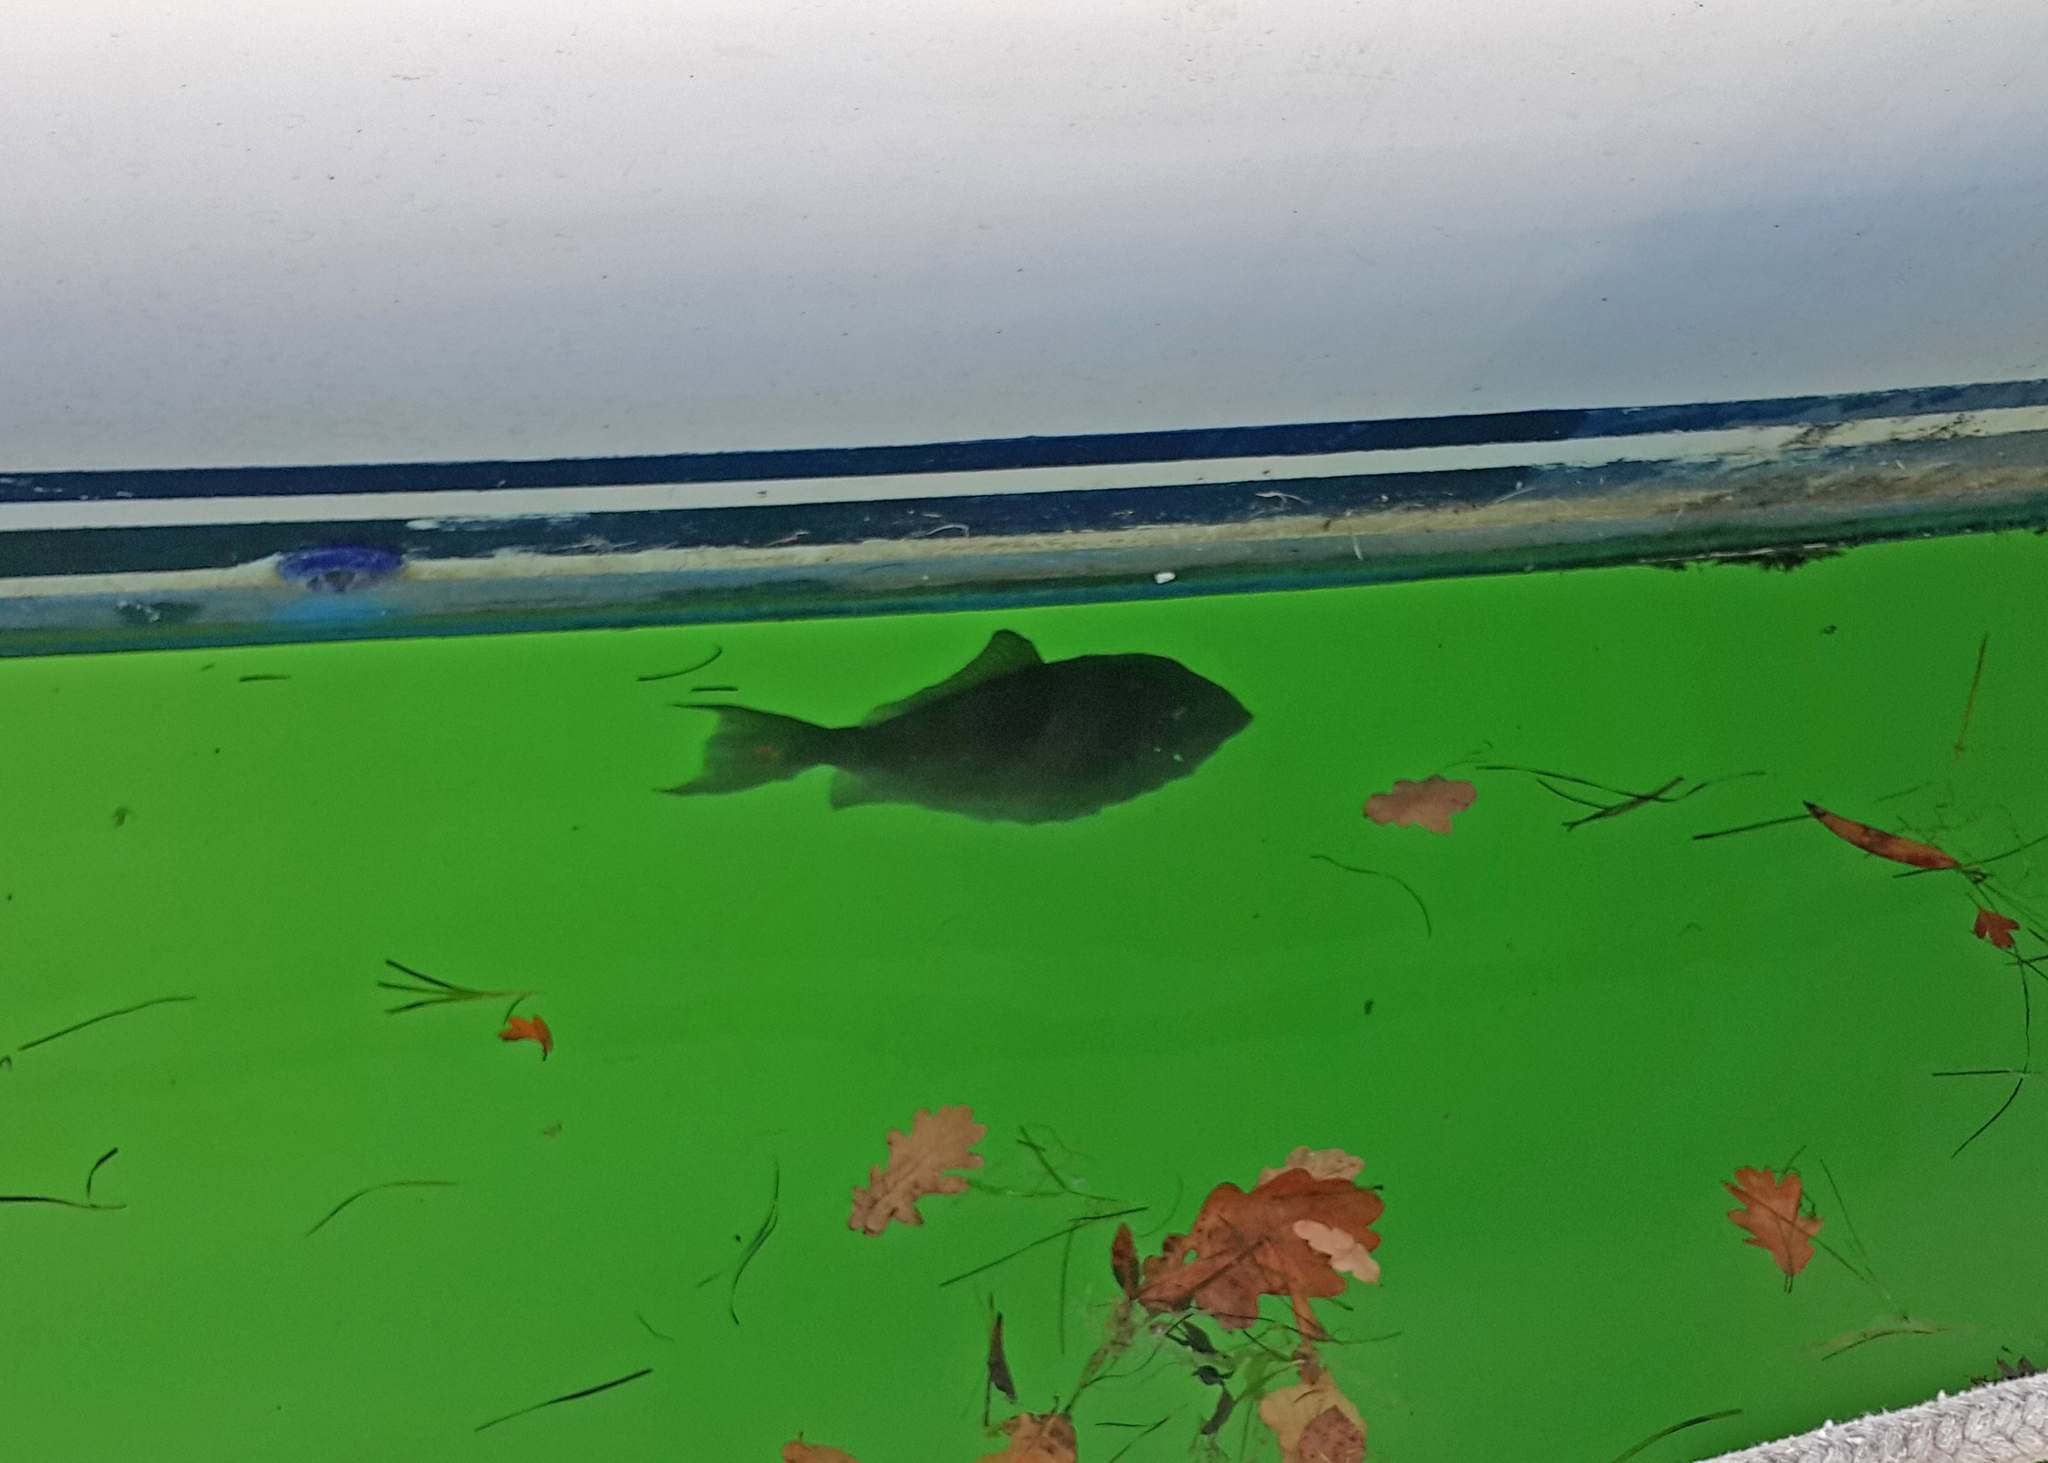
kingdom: Animalia
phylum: Chordata
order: Tetraodontiformes
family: Balistidae
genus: Balistes
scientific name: Balistes capriscus
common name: Grey triggerfish
